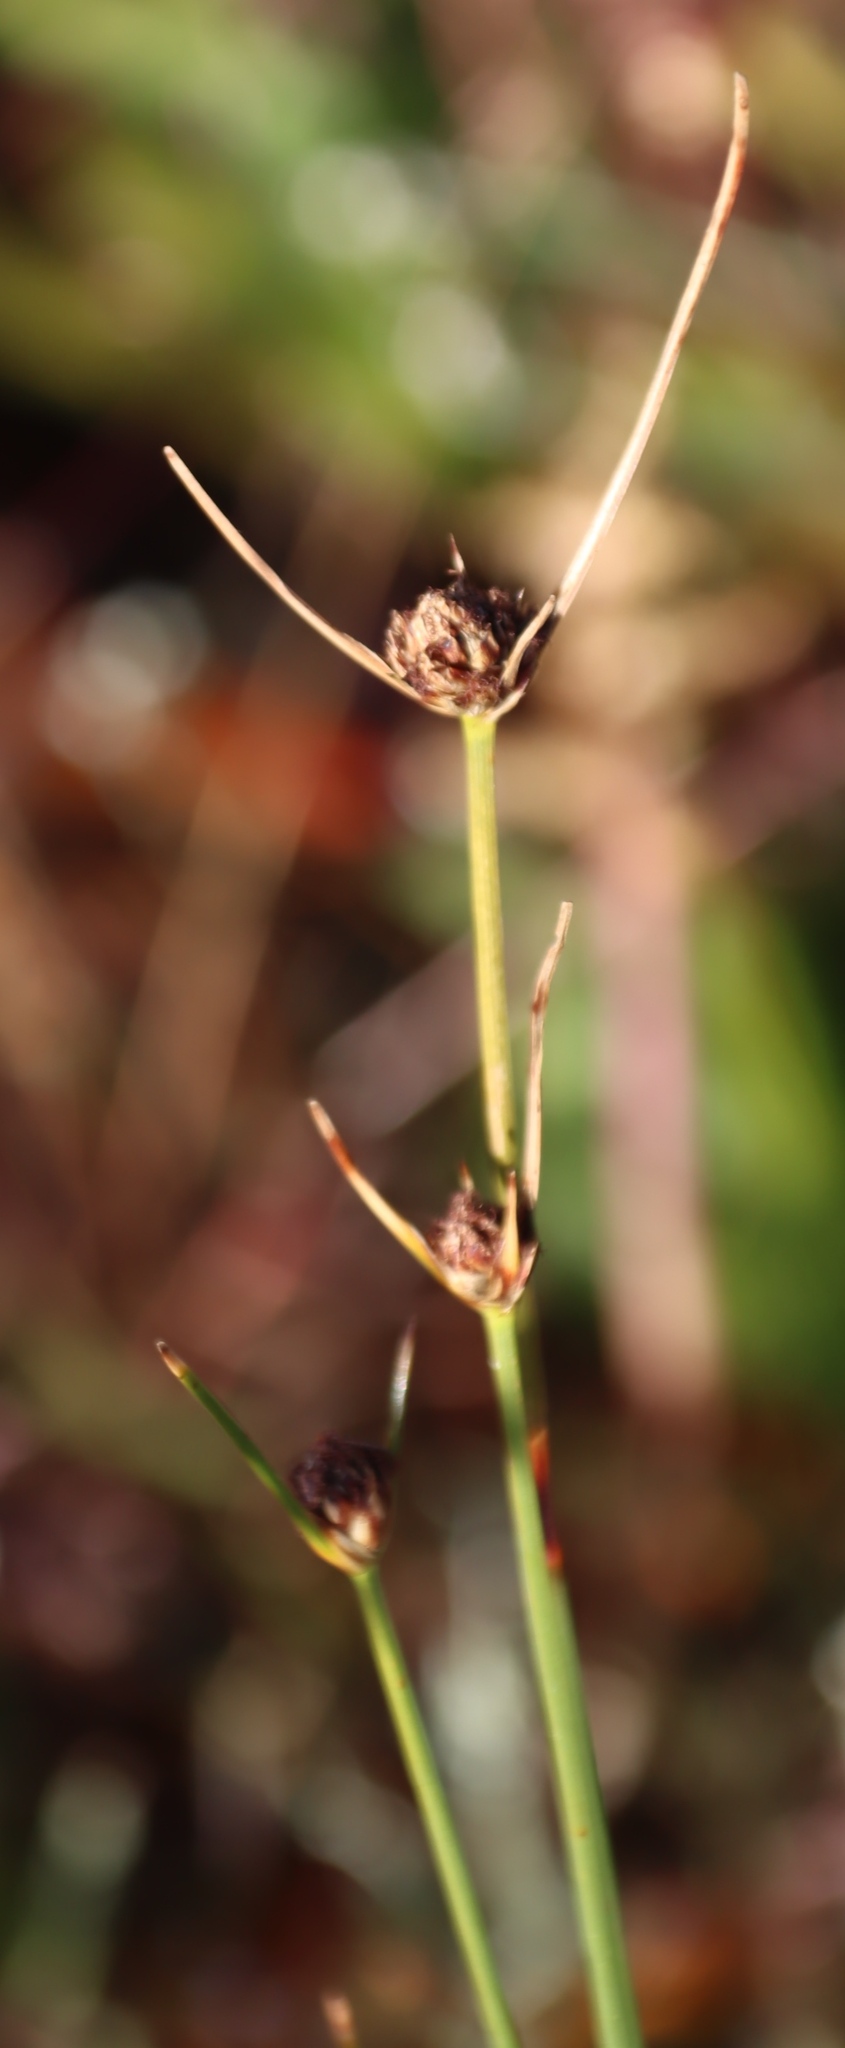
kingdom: Plantae
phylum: Tracheophyta
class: Liliopsida
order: Poales
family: Cyperaceae
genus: Ficinia
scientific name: Ficinia indica
